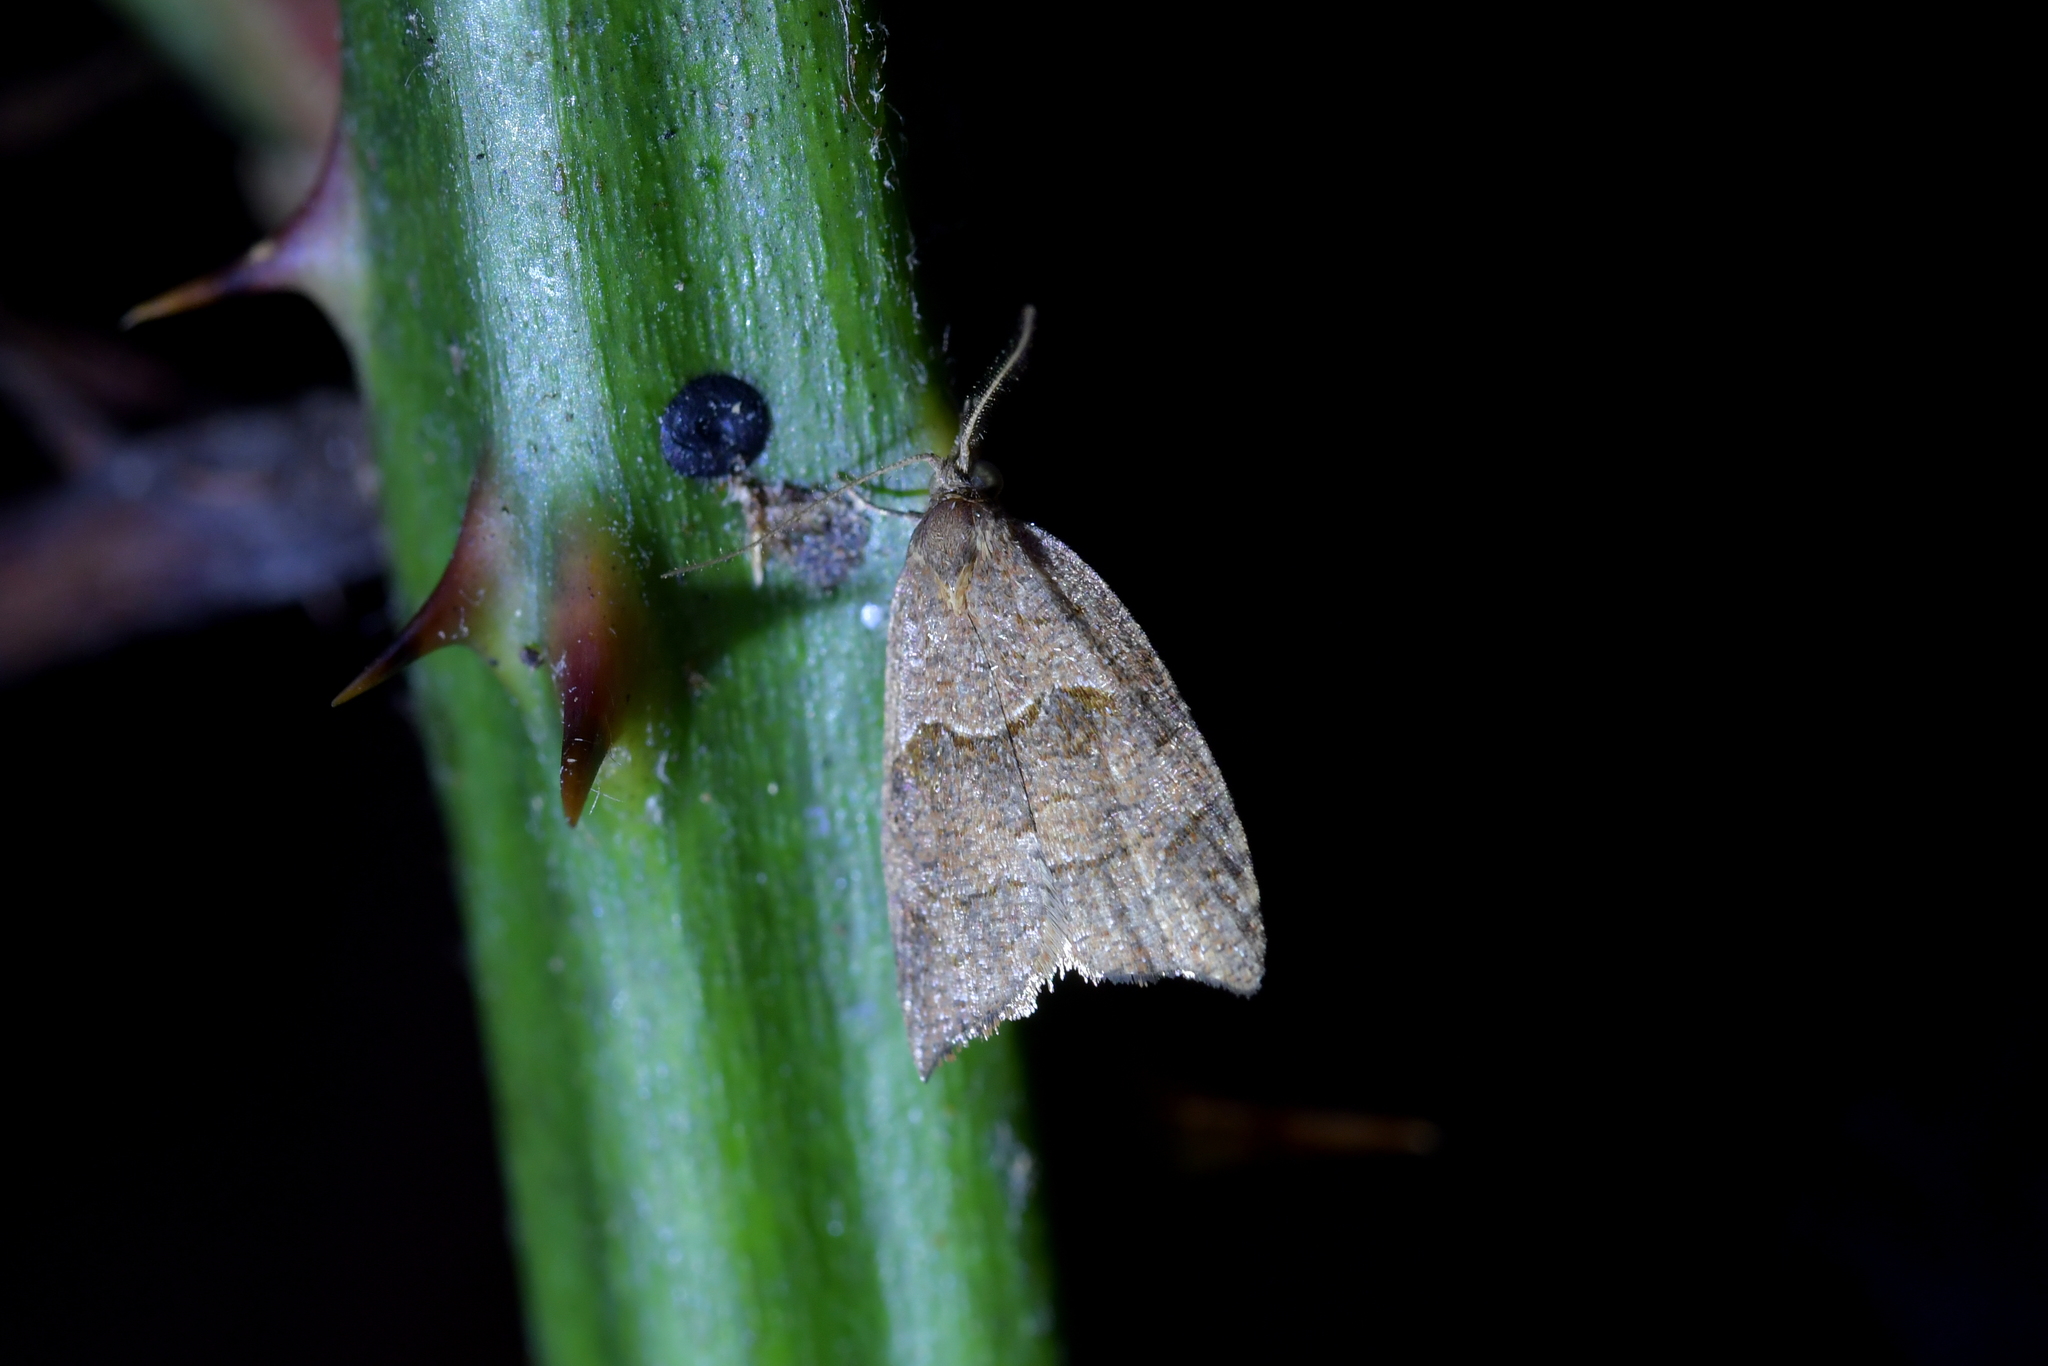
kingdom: Animalia
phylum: Arthropoda
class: Insecta
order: Lepidoptera
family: Tortricidae
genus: Cnephasia
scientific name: Cnephasia incertana
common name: Light grey tortrix
